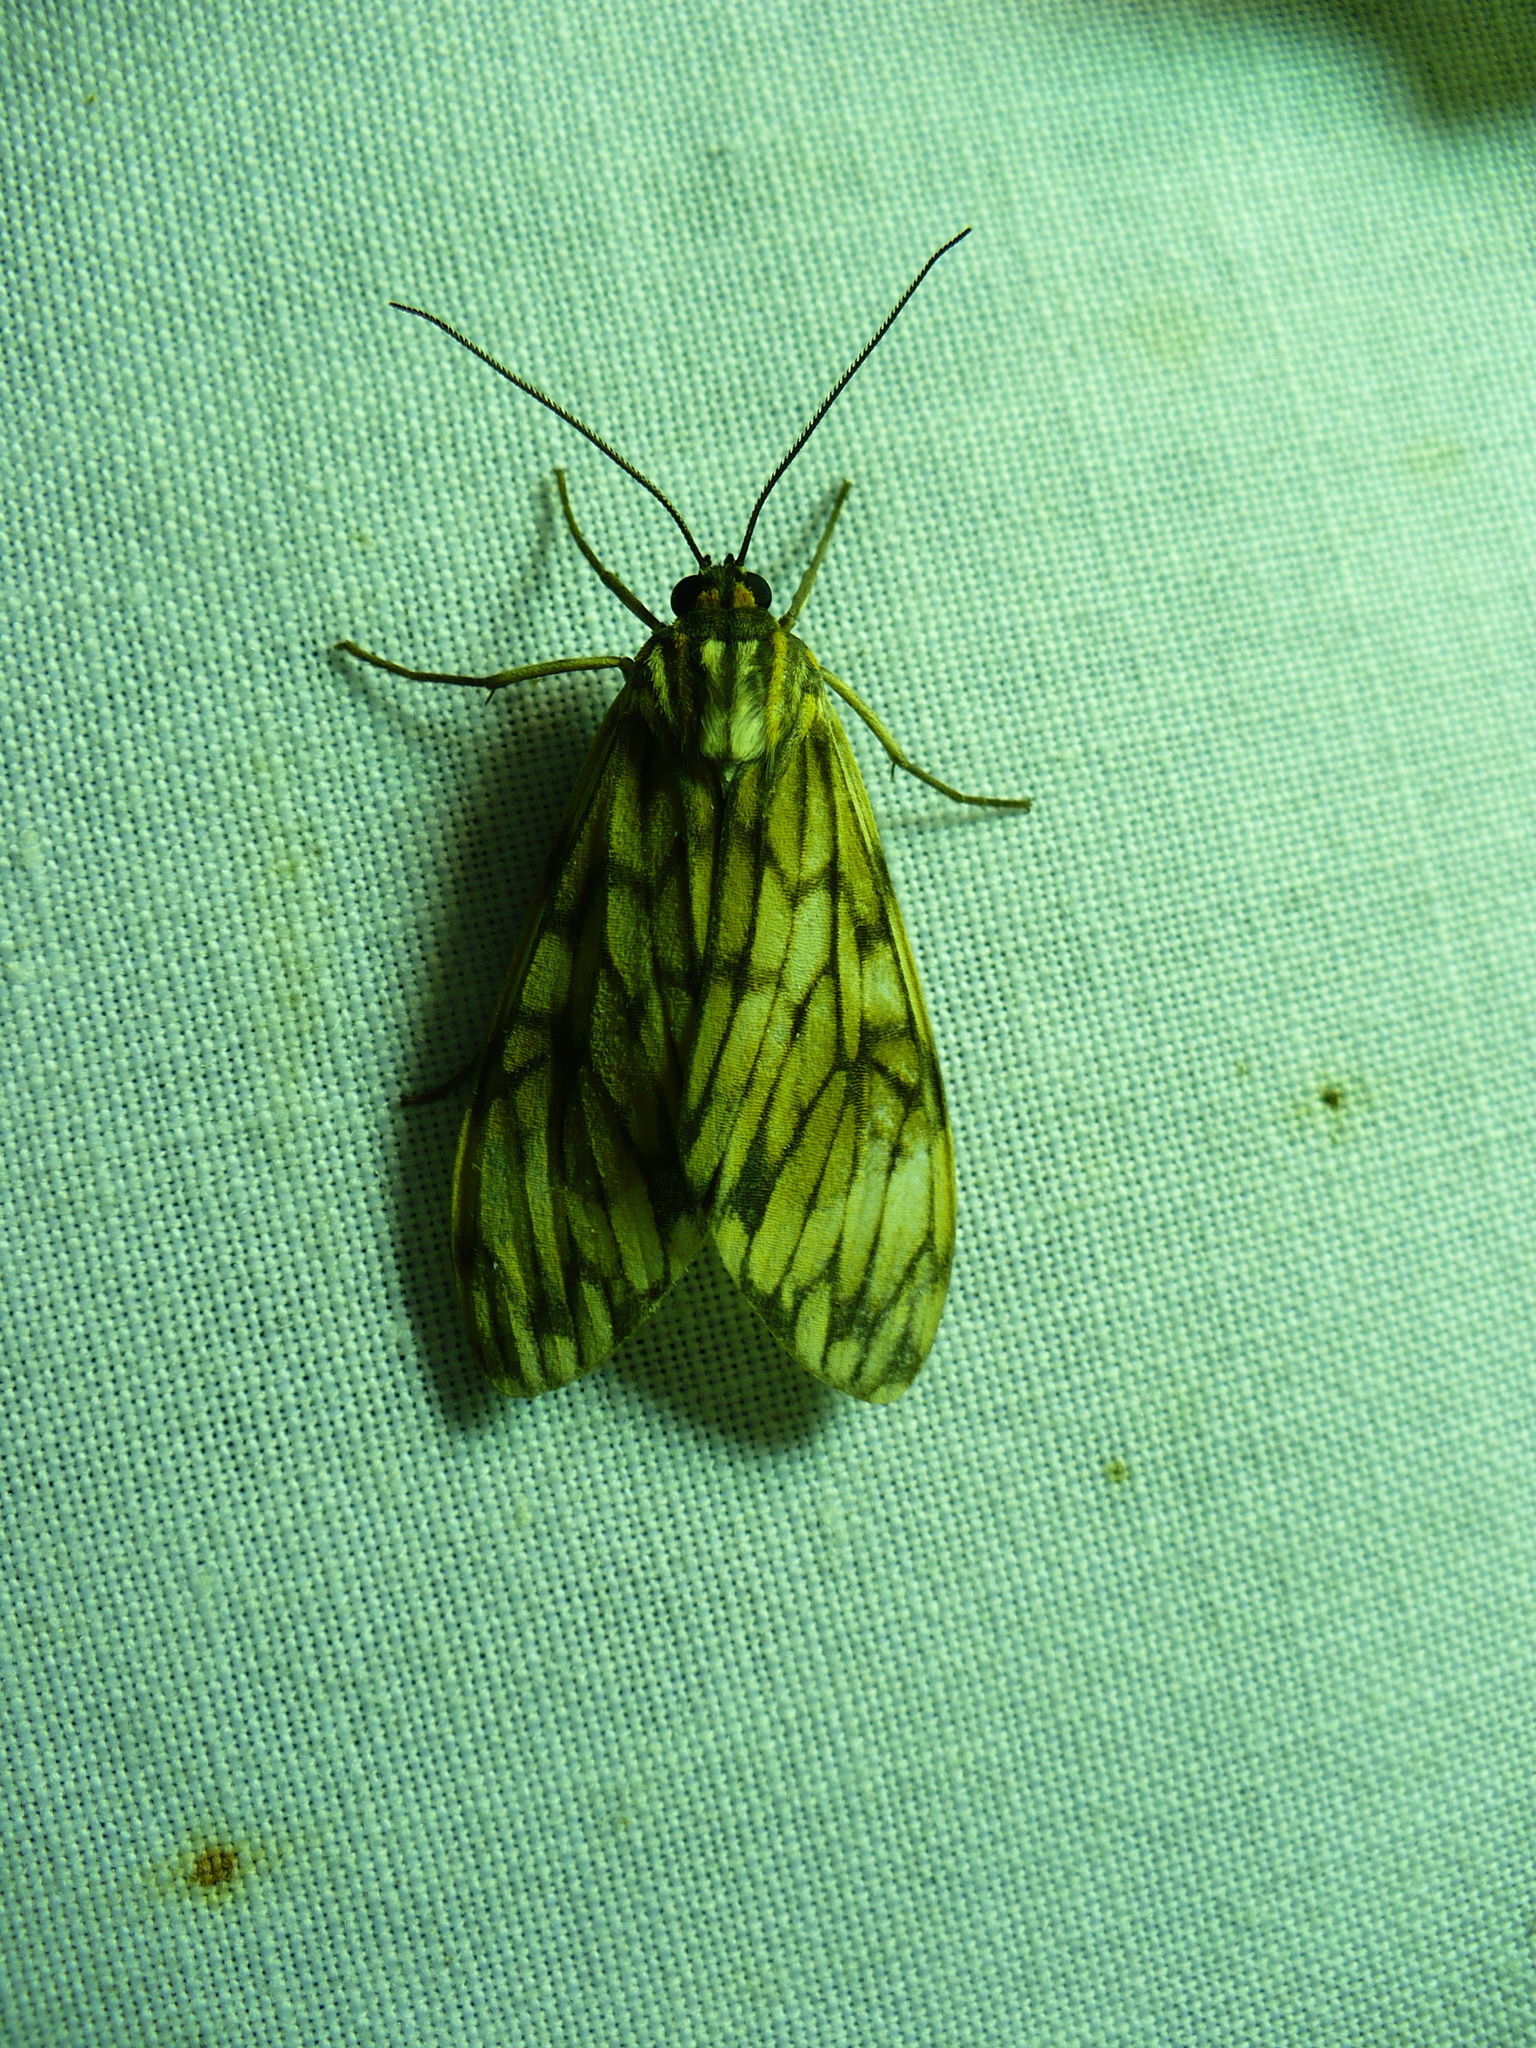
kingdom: Animalia
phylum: Arthropoda
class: Insecta
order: Lepidoptera
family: Erebidae
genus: Theages
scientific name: Theages flavicaput
